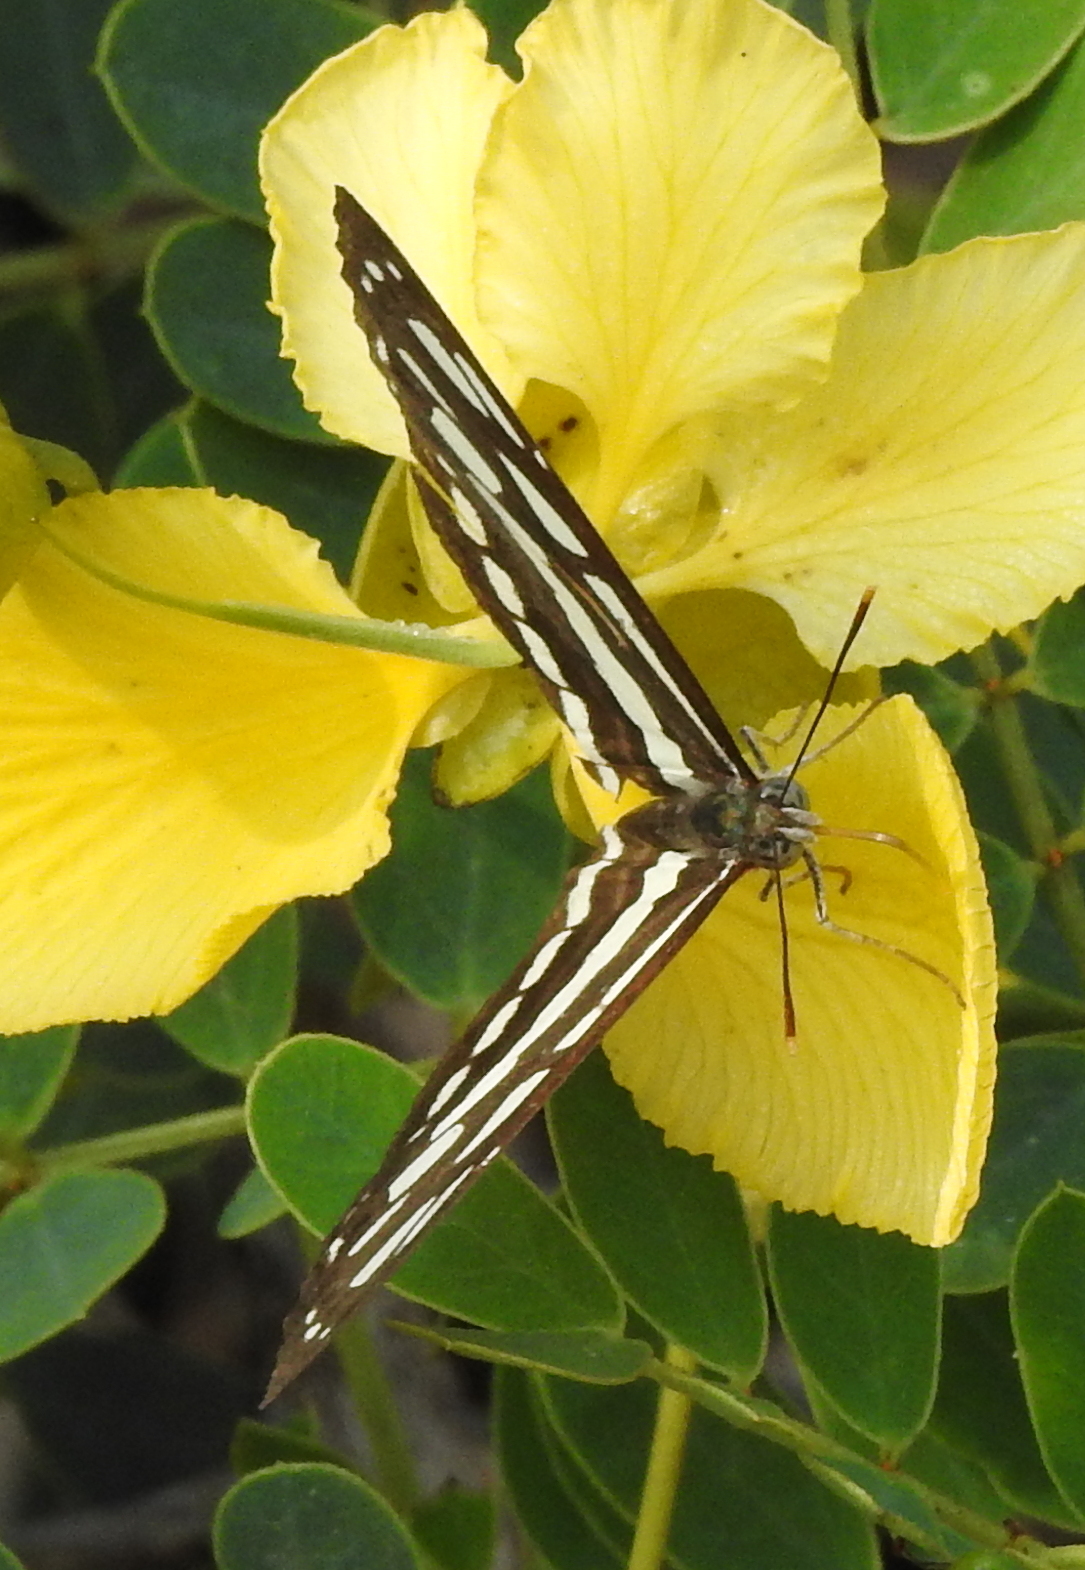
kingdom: Animalia
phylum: Arthropoda
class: Insecta
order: Lepidoptera
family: Nymphalidae
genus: Neptis
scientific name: Neptis hylas
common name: Common sailer
